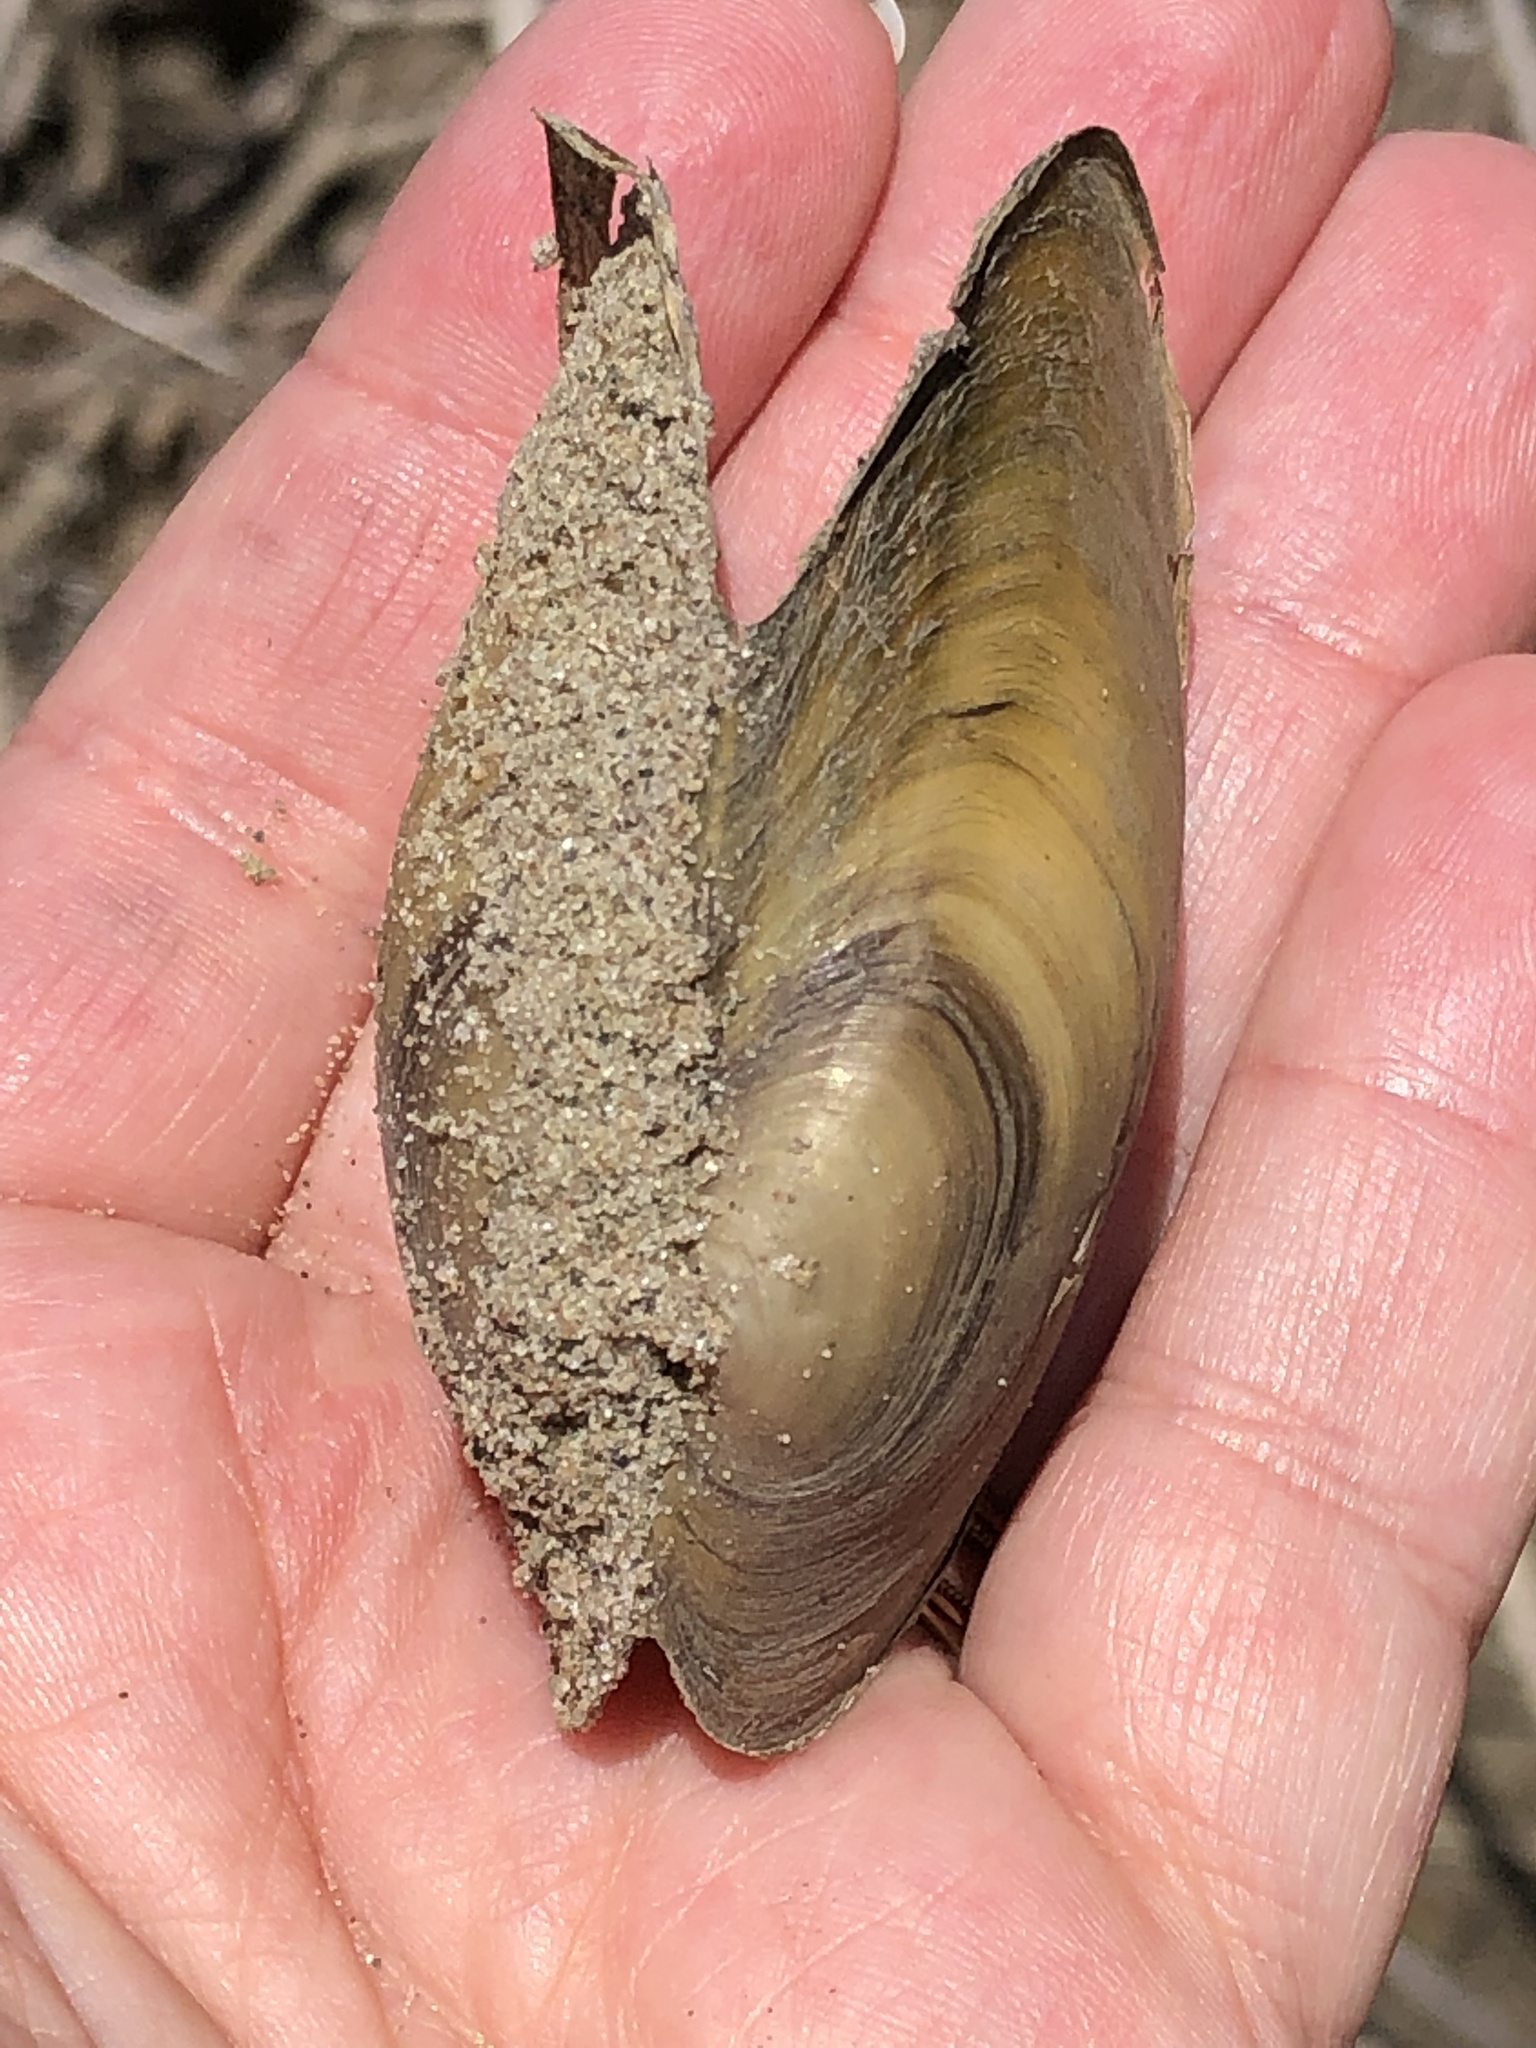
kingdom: Animalia
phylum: Mollusca
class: Bivalvia
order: Unionida
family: Unionidae
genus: Pyganodon
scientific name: Pyganodon grandis
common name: Giant floater
